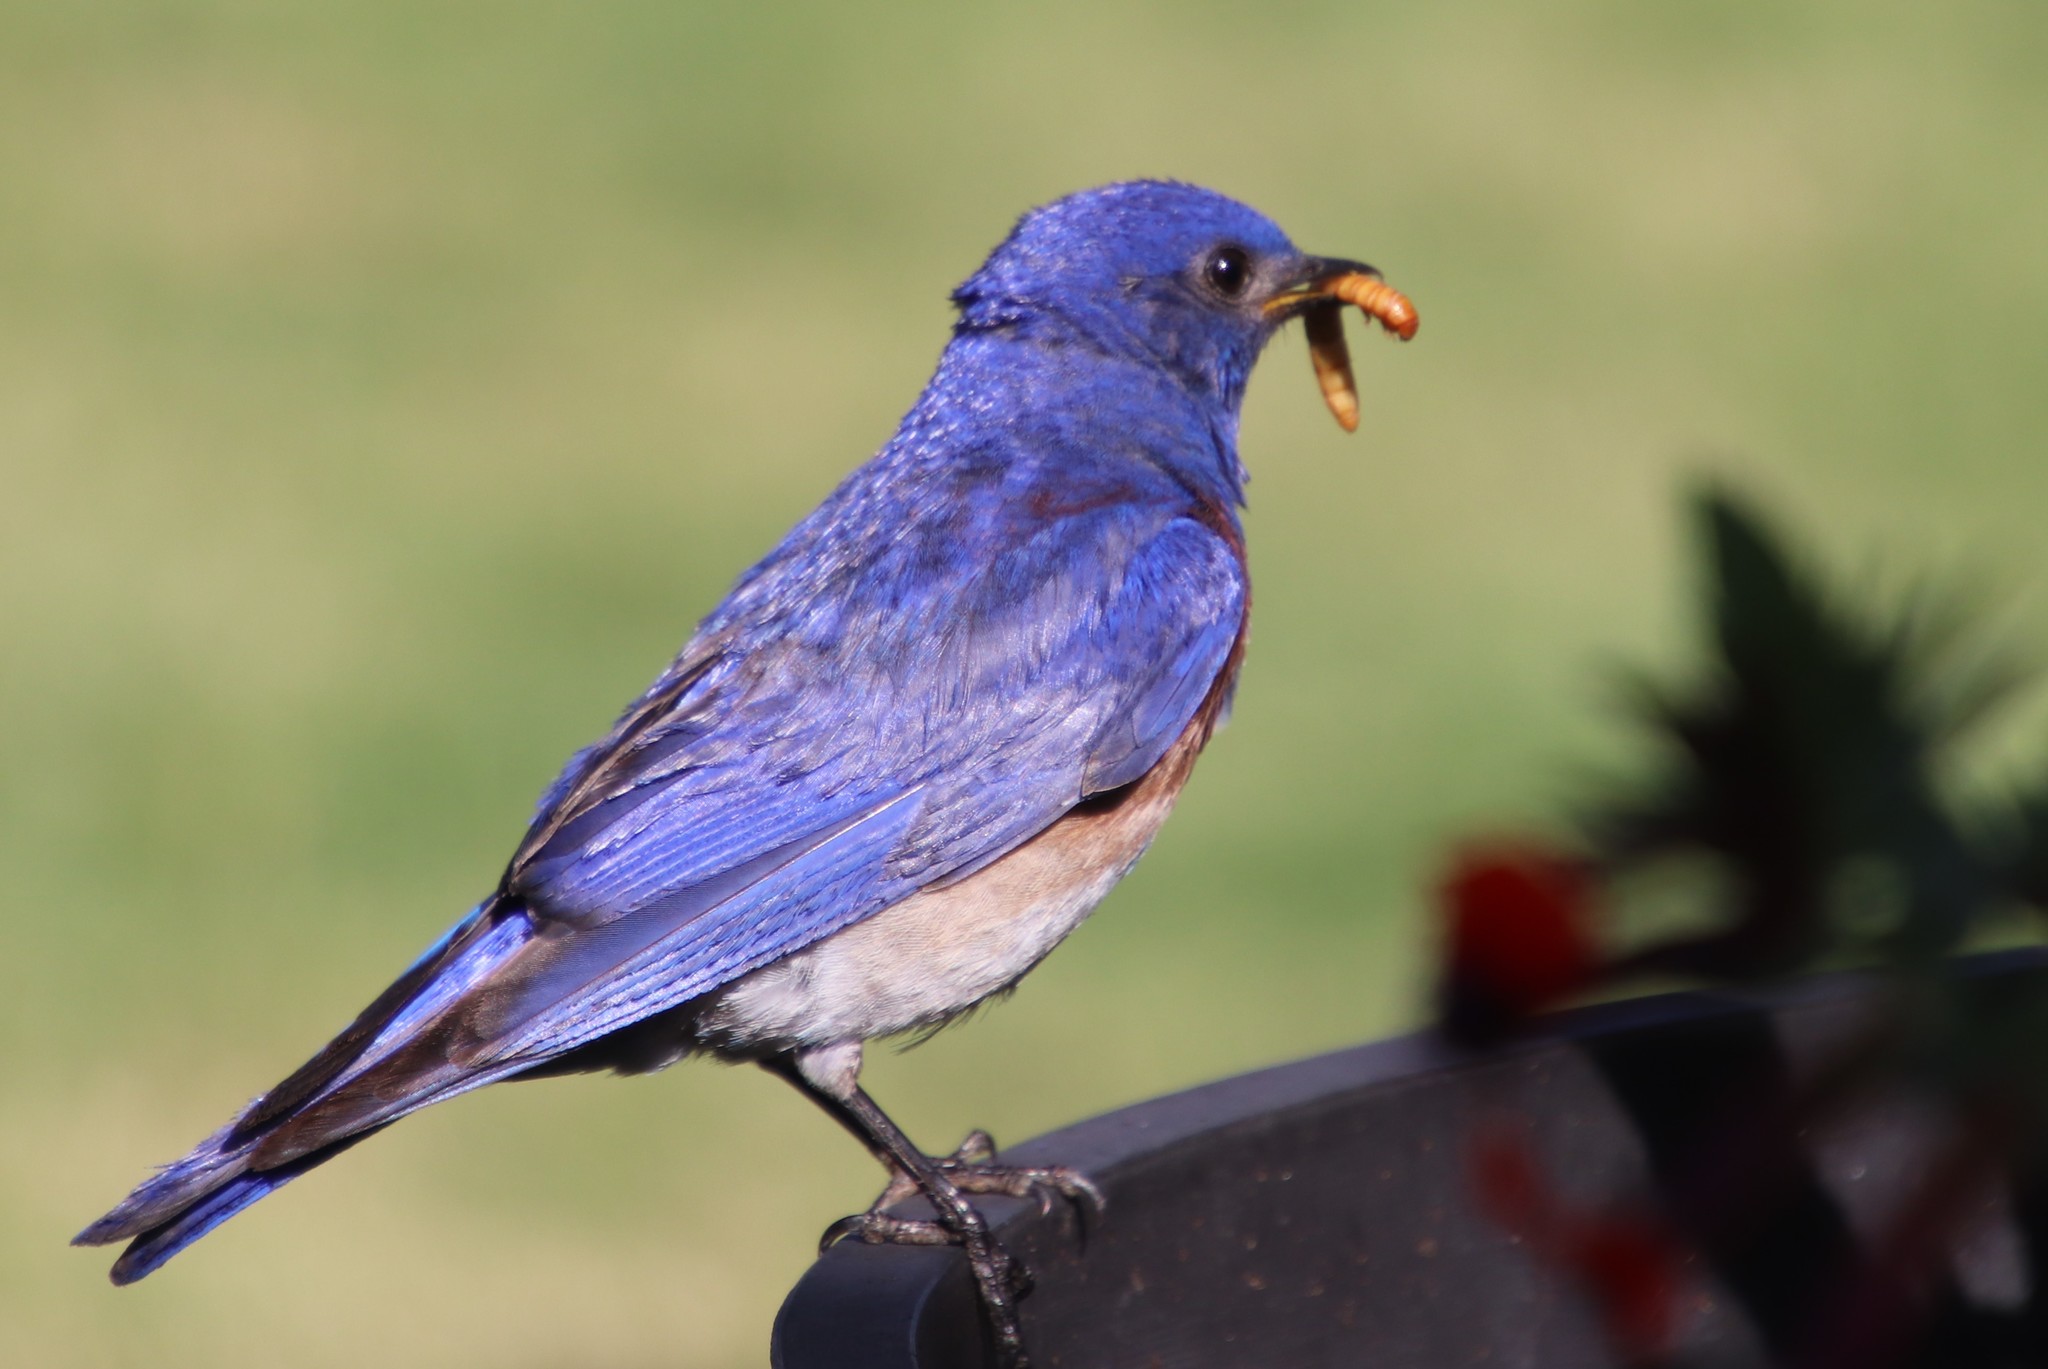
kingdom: Animalia
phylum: Chordata
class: Aves
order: Passeriformes
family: Turdidae
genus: Sialia
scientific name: Sialia mexicana
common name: Western bluebird
